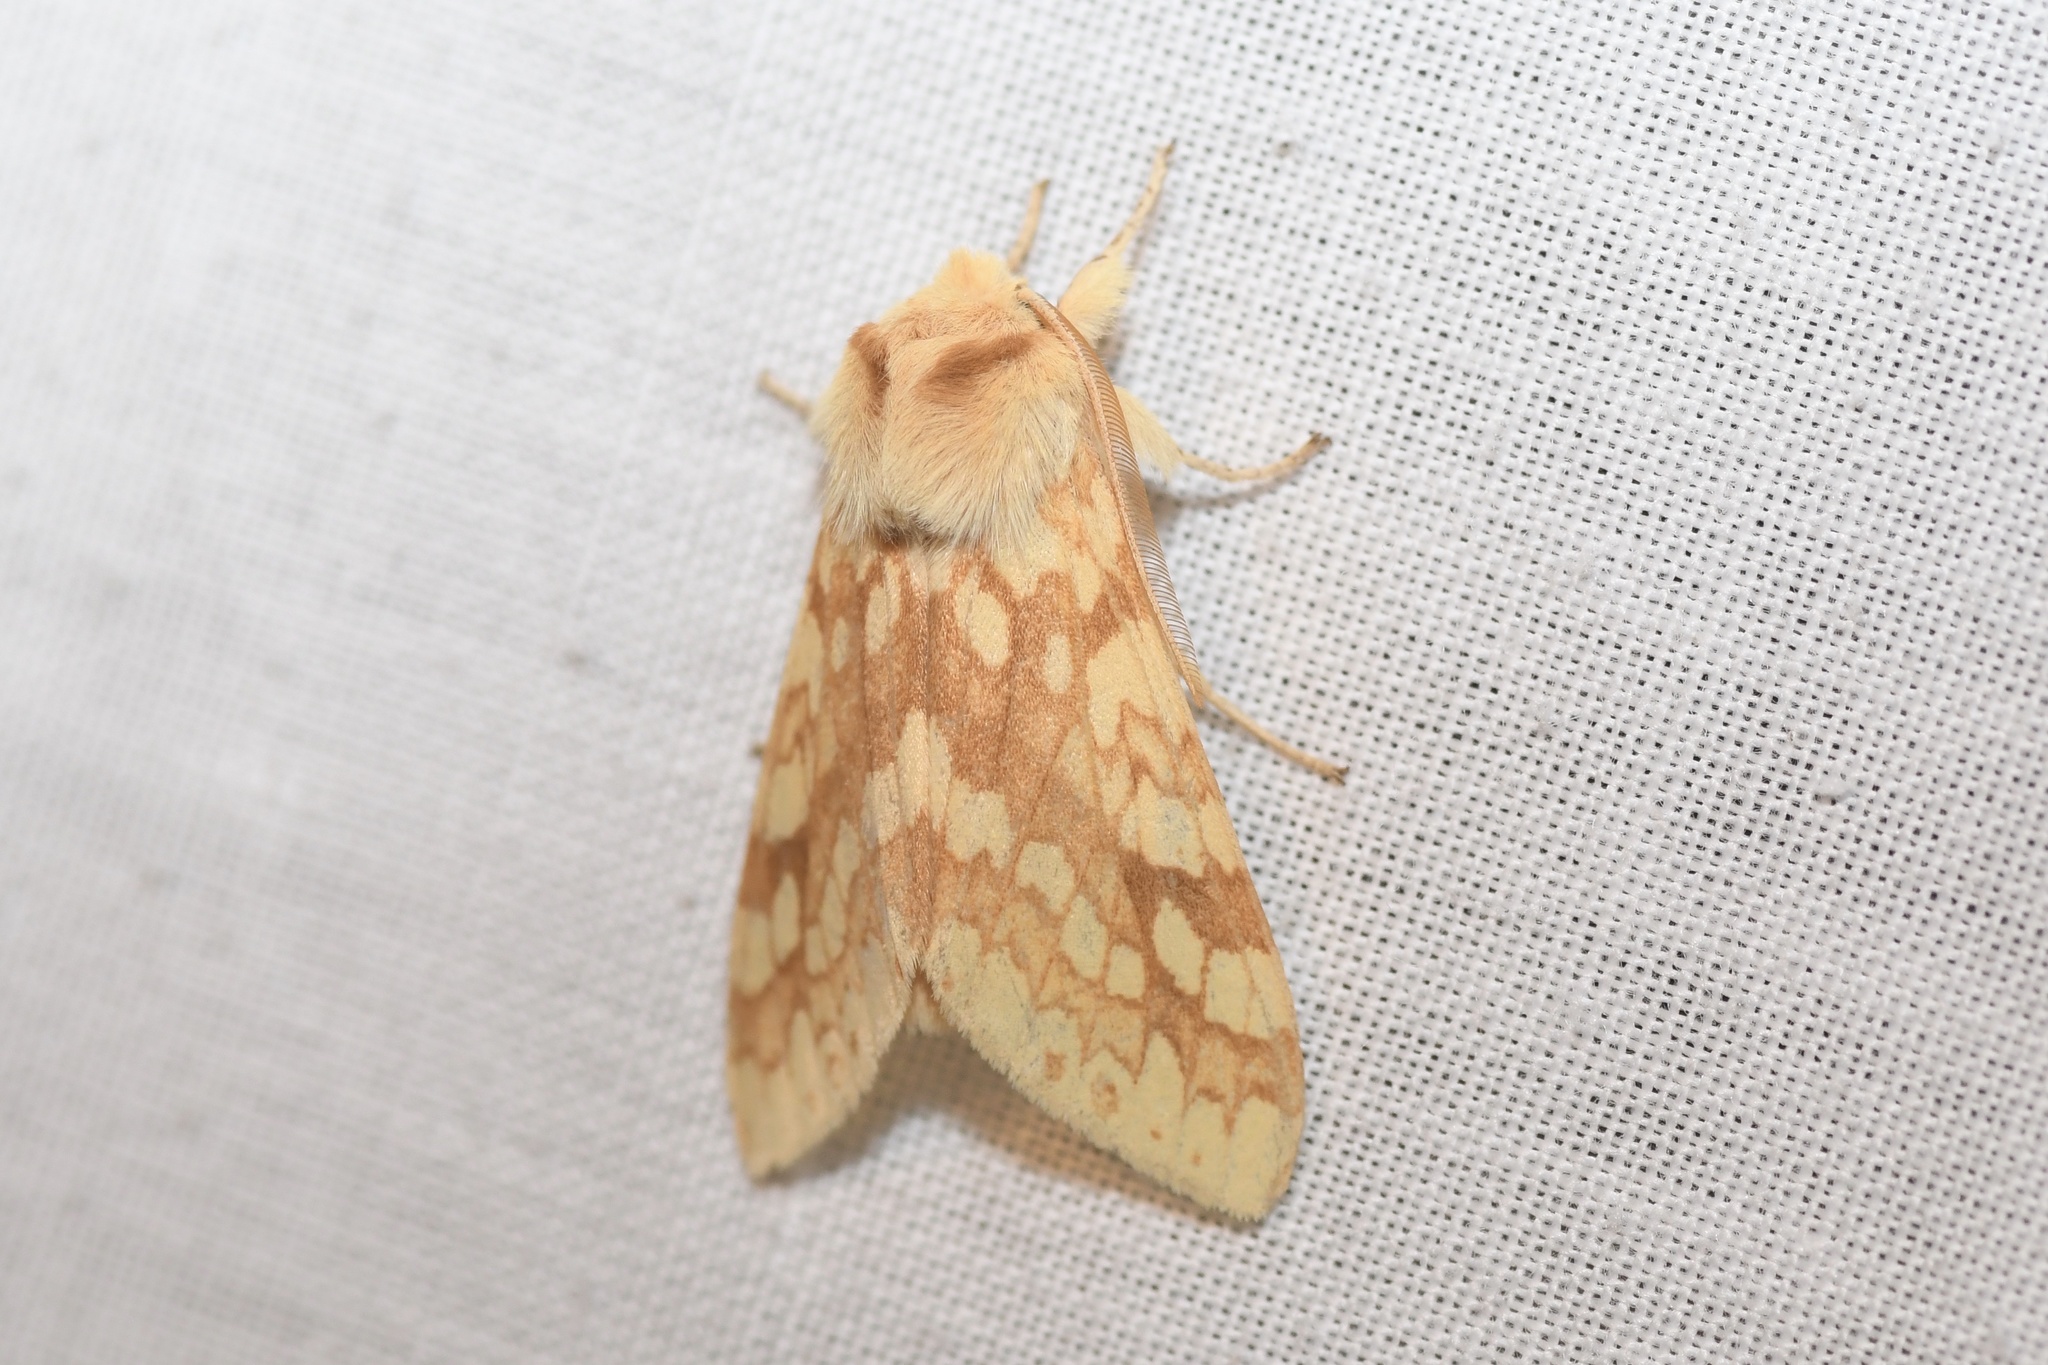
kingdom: Animalia
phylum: Arthropoda
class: Insecta
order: Lepidoptera
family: Erebidae
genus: Lophocampa
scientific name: Lophocampa maculata
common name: Spotted tussock moth
